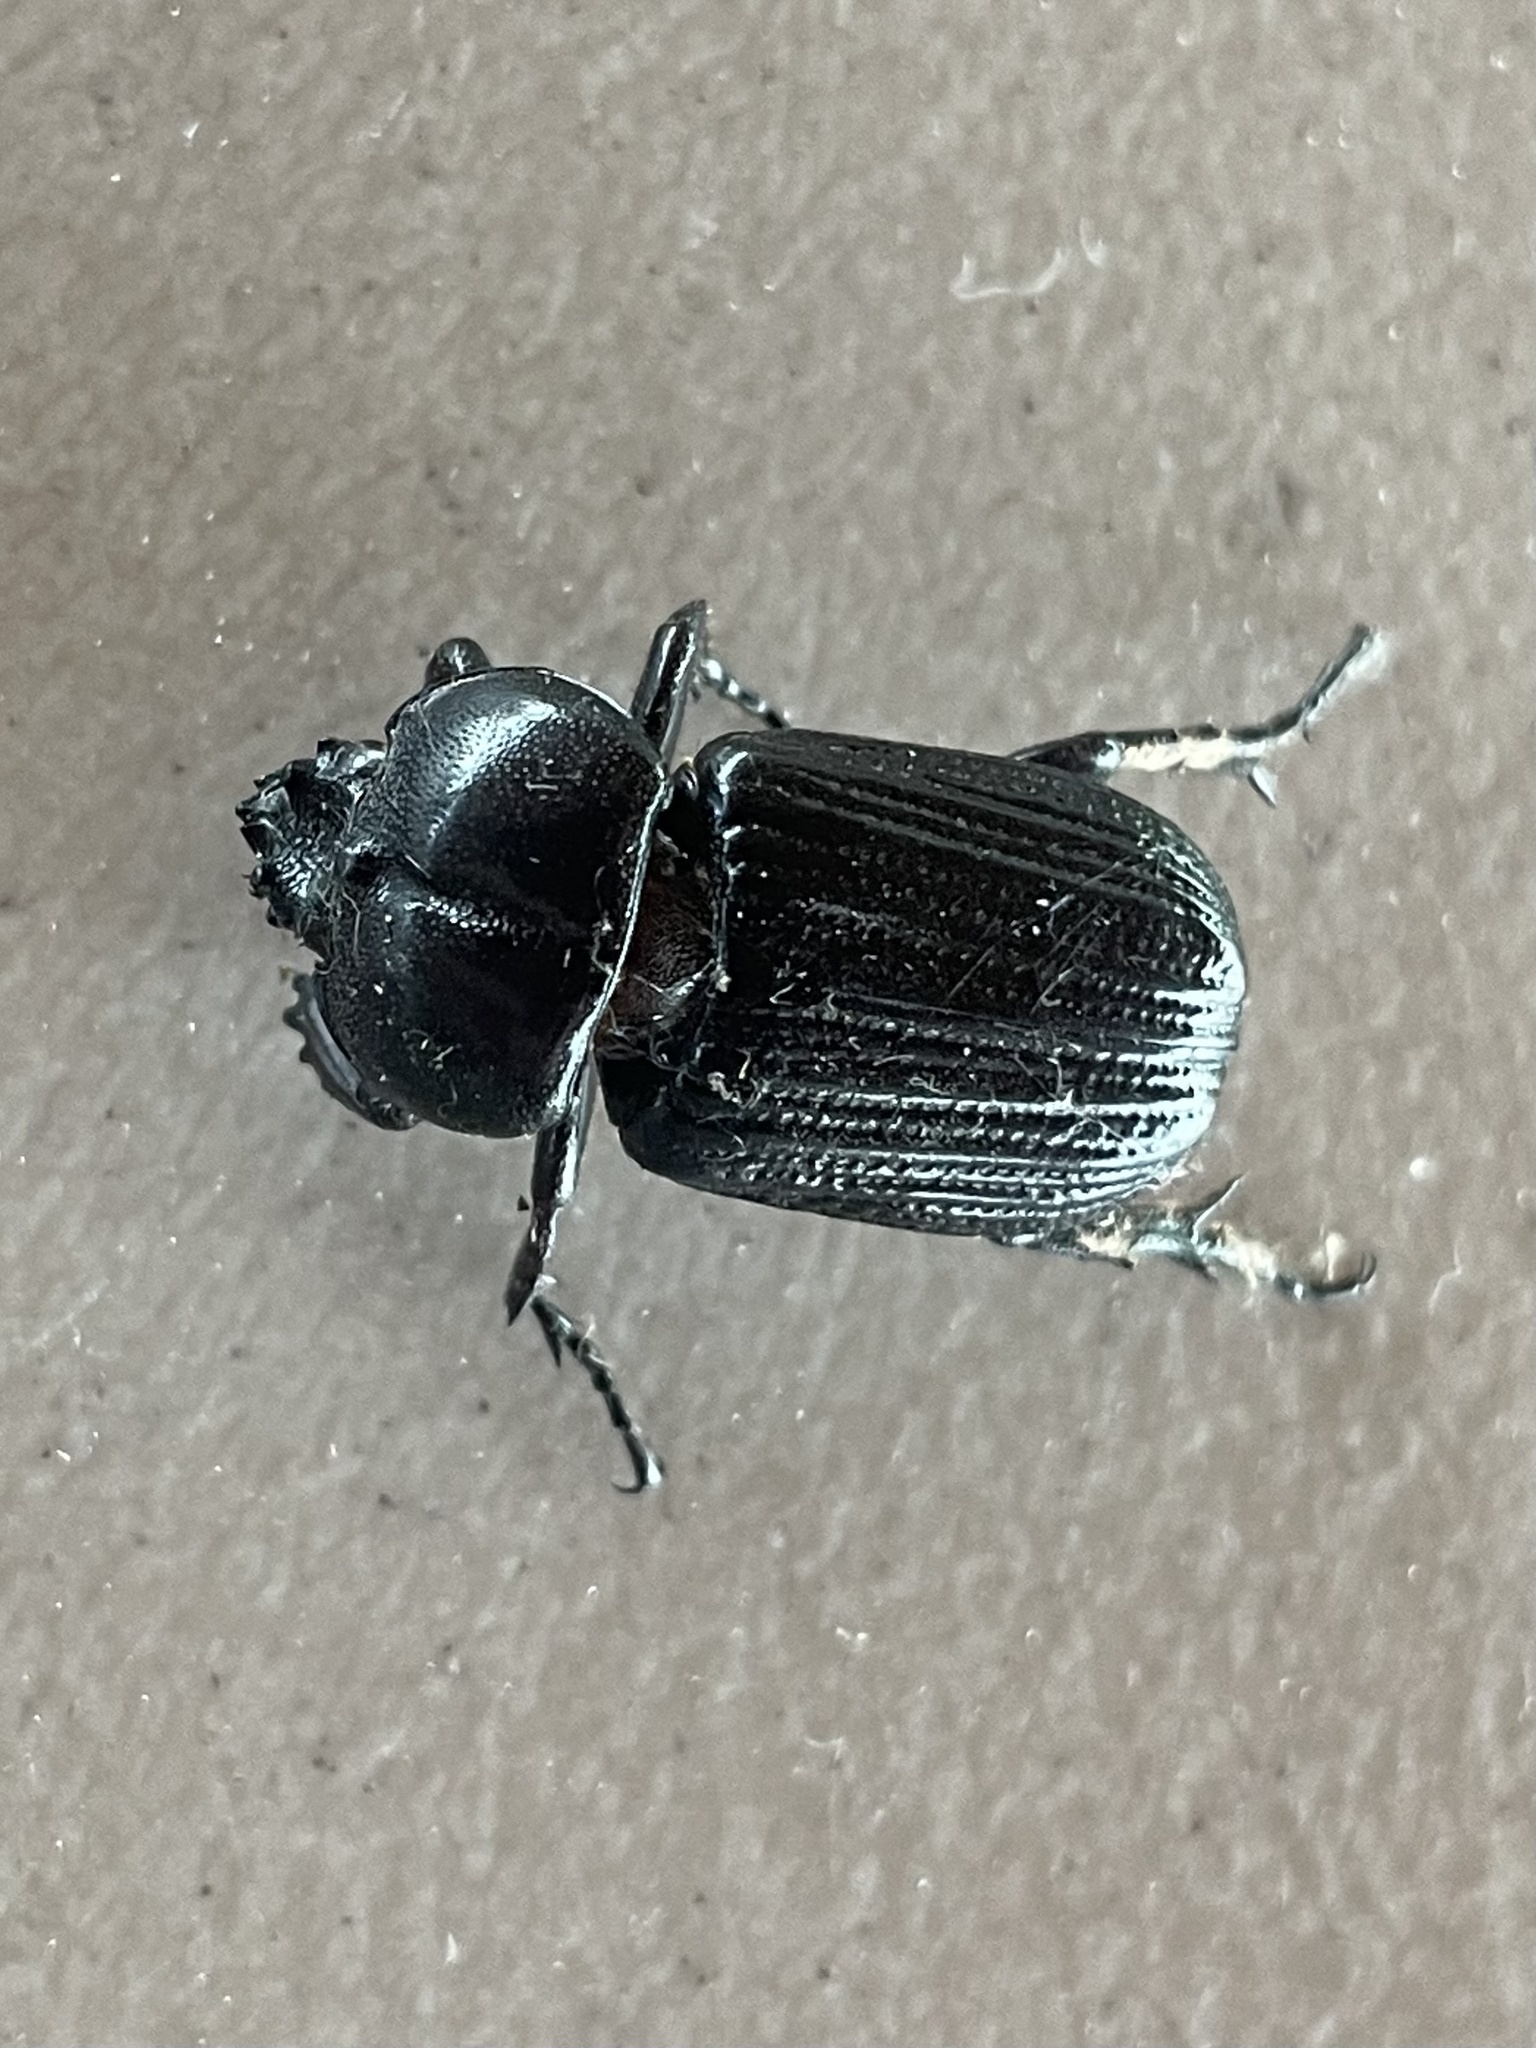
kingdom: Animalia
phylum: Arthropoda
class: Insecta
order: Coleoptera
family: Scarabaeidae
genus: Phileurus
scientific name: Phileurus valgus
